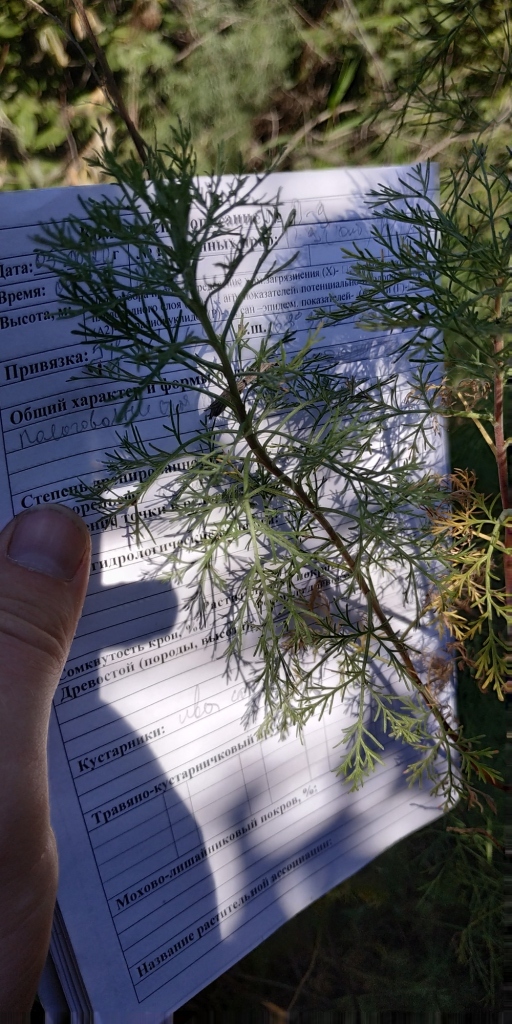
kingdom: Plantae
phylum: Tracheophyta
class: Magnoliopsida
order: Asterales
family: Asteraceae
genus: Artemisia
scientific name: Artemisia abrotanum
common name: Southernwood
